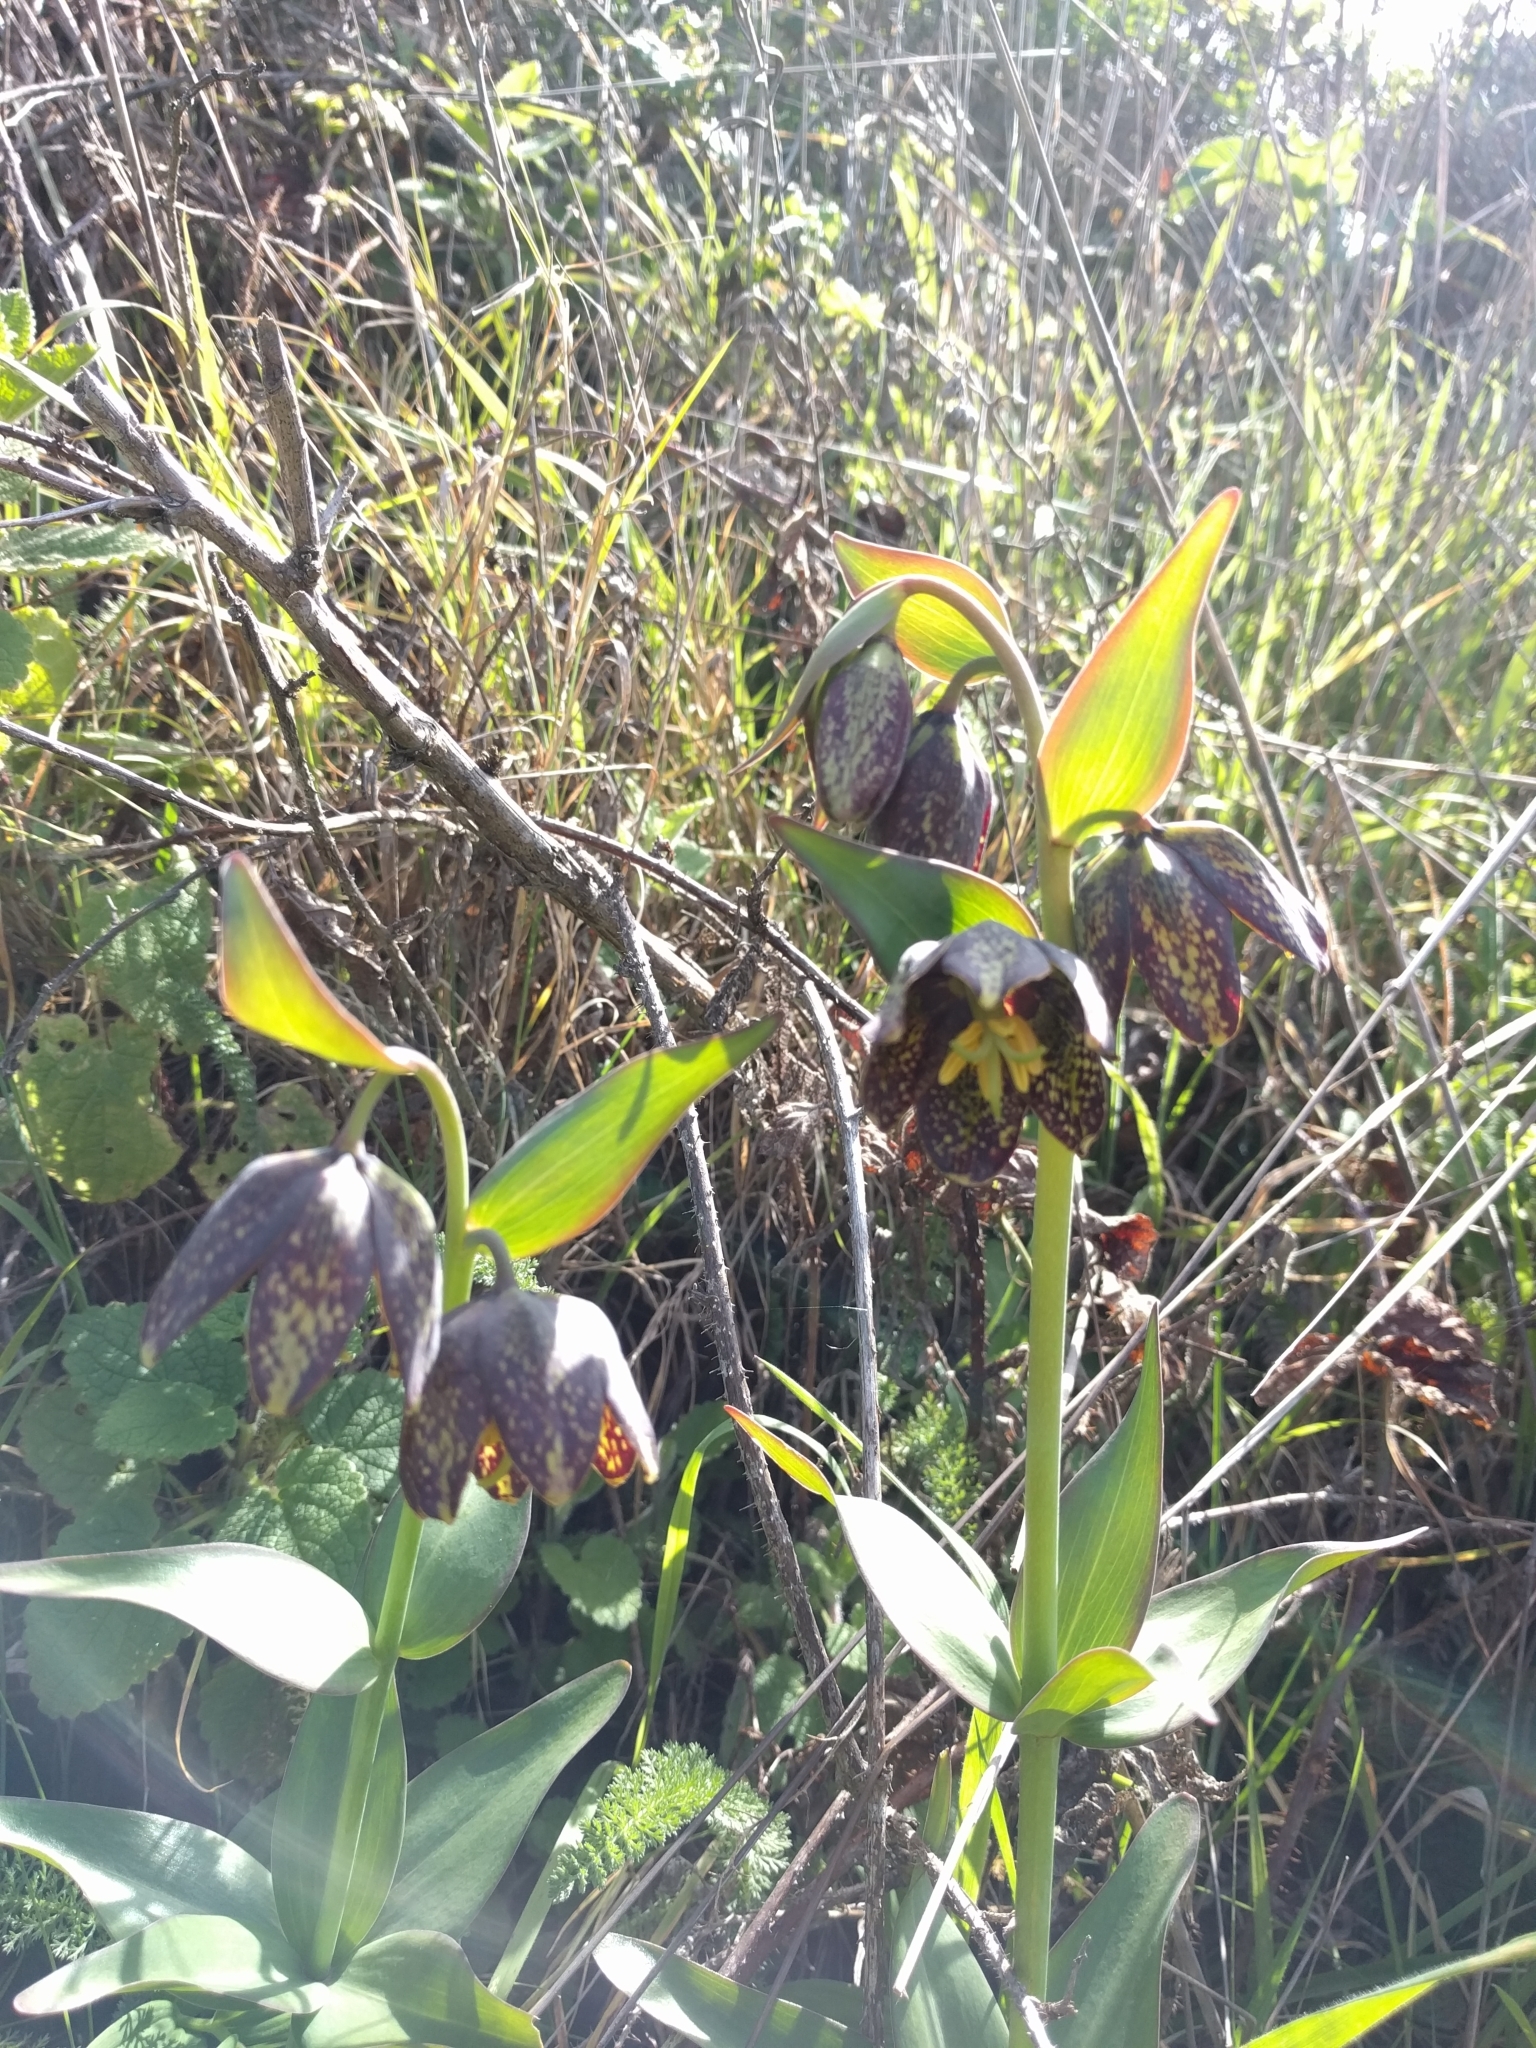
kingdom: Plantae
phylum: Tracheophyta
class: Liliopsida
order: Liliales
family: Liliaceae
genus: Fritillaria
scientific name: Fritillaria affinis
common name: Ojai fritillary
